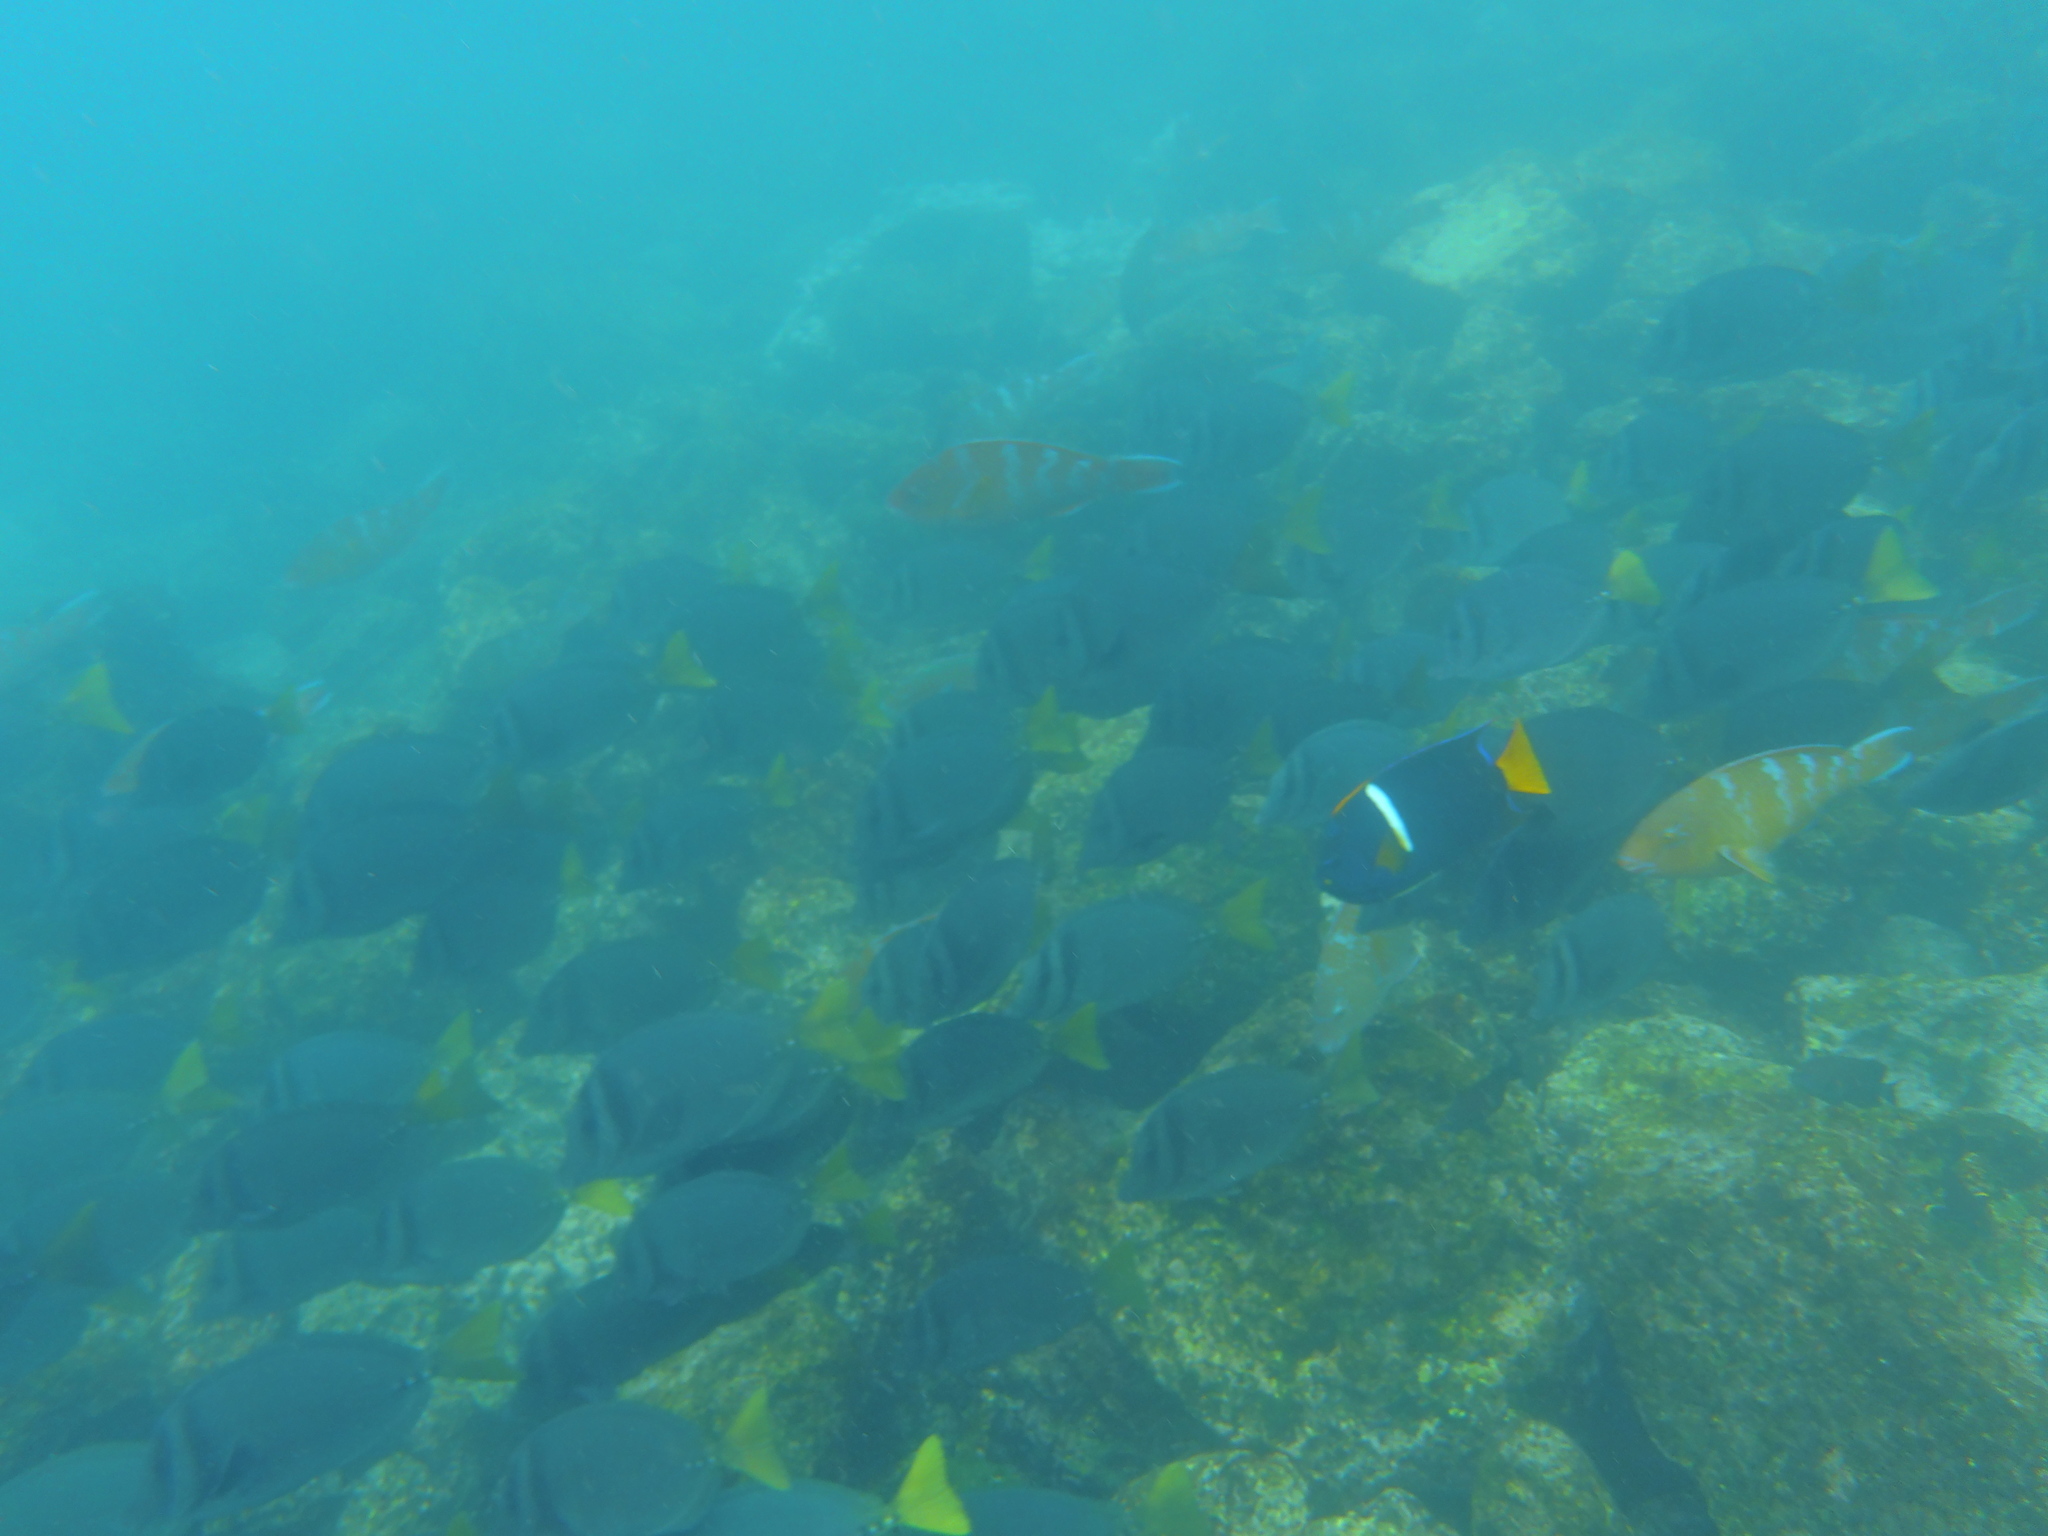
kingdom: Animalia
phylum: Chordata
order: Perciformes
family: Pomacanthidae
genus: Holacanthus
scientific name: Holacanthus passer
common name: King angelfish
